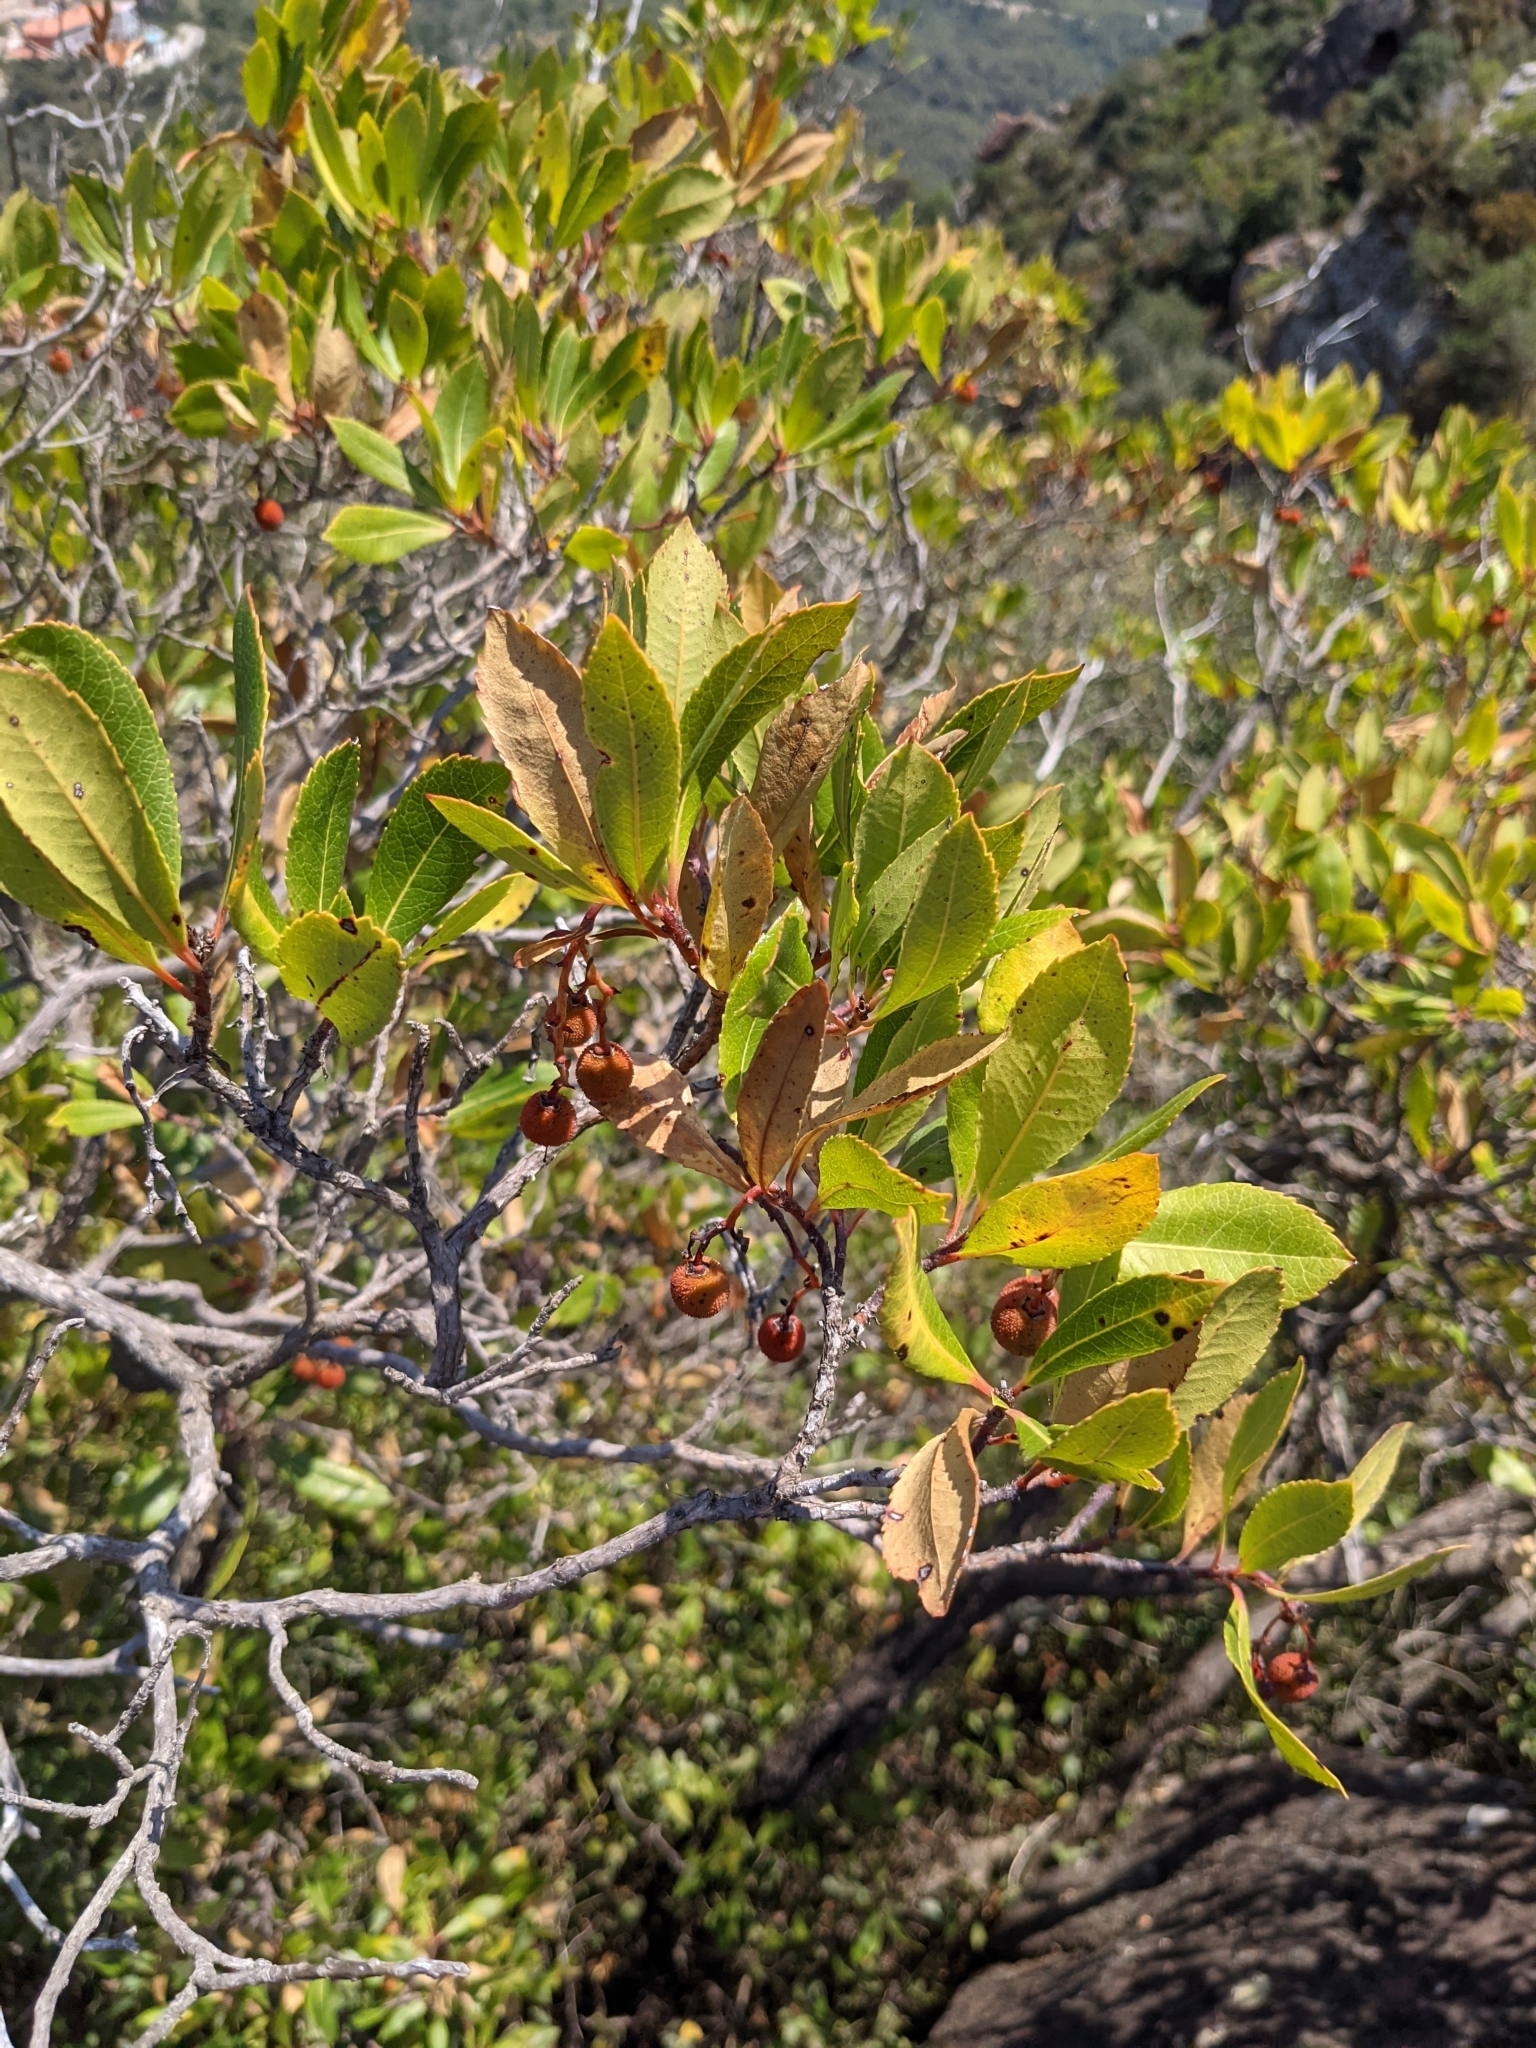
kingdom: Plantae
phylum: Tracheophyta
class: Magnoliopsida
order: Ericales
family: Ericaceae
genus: Arbutus
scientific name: Arbutus unedo
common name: Strawberry-tree
